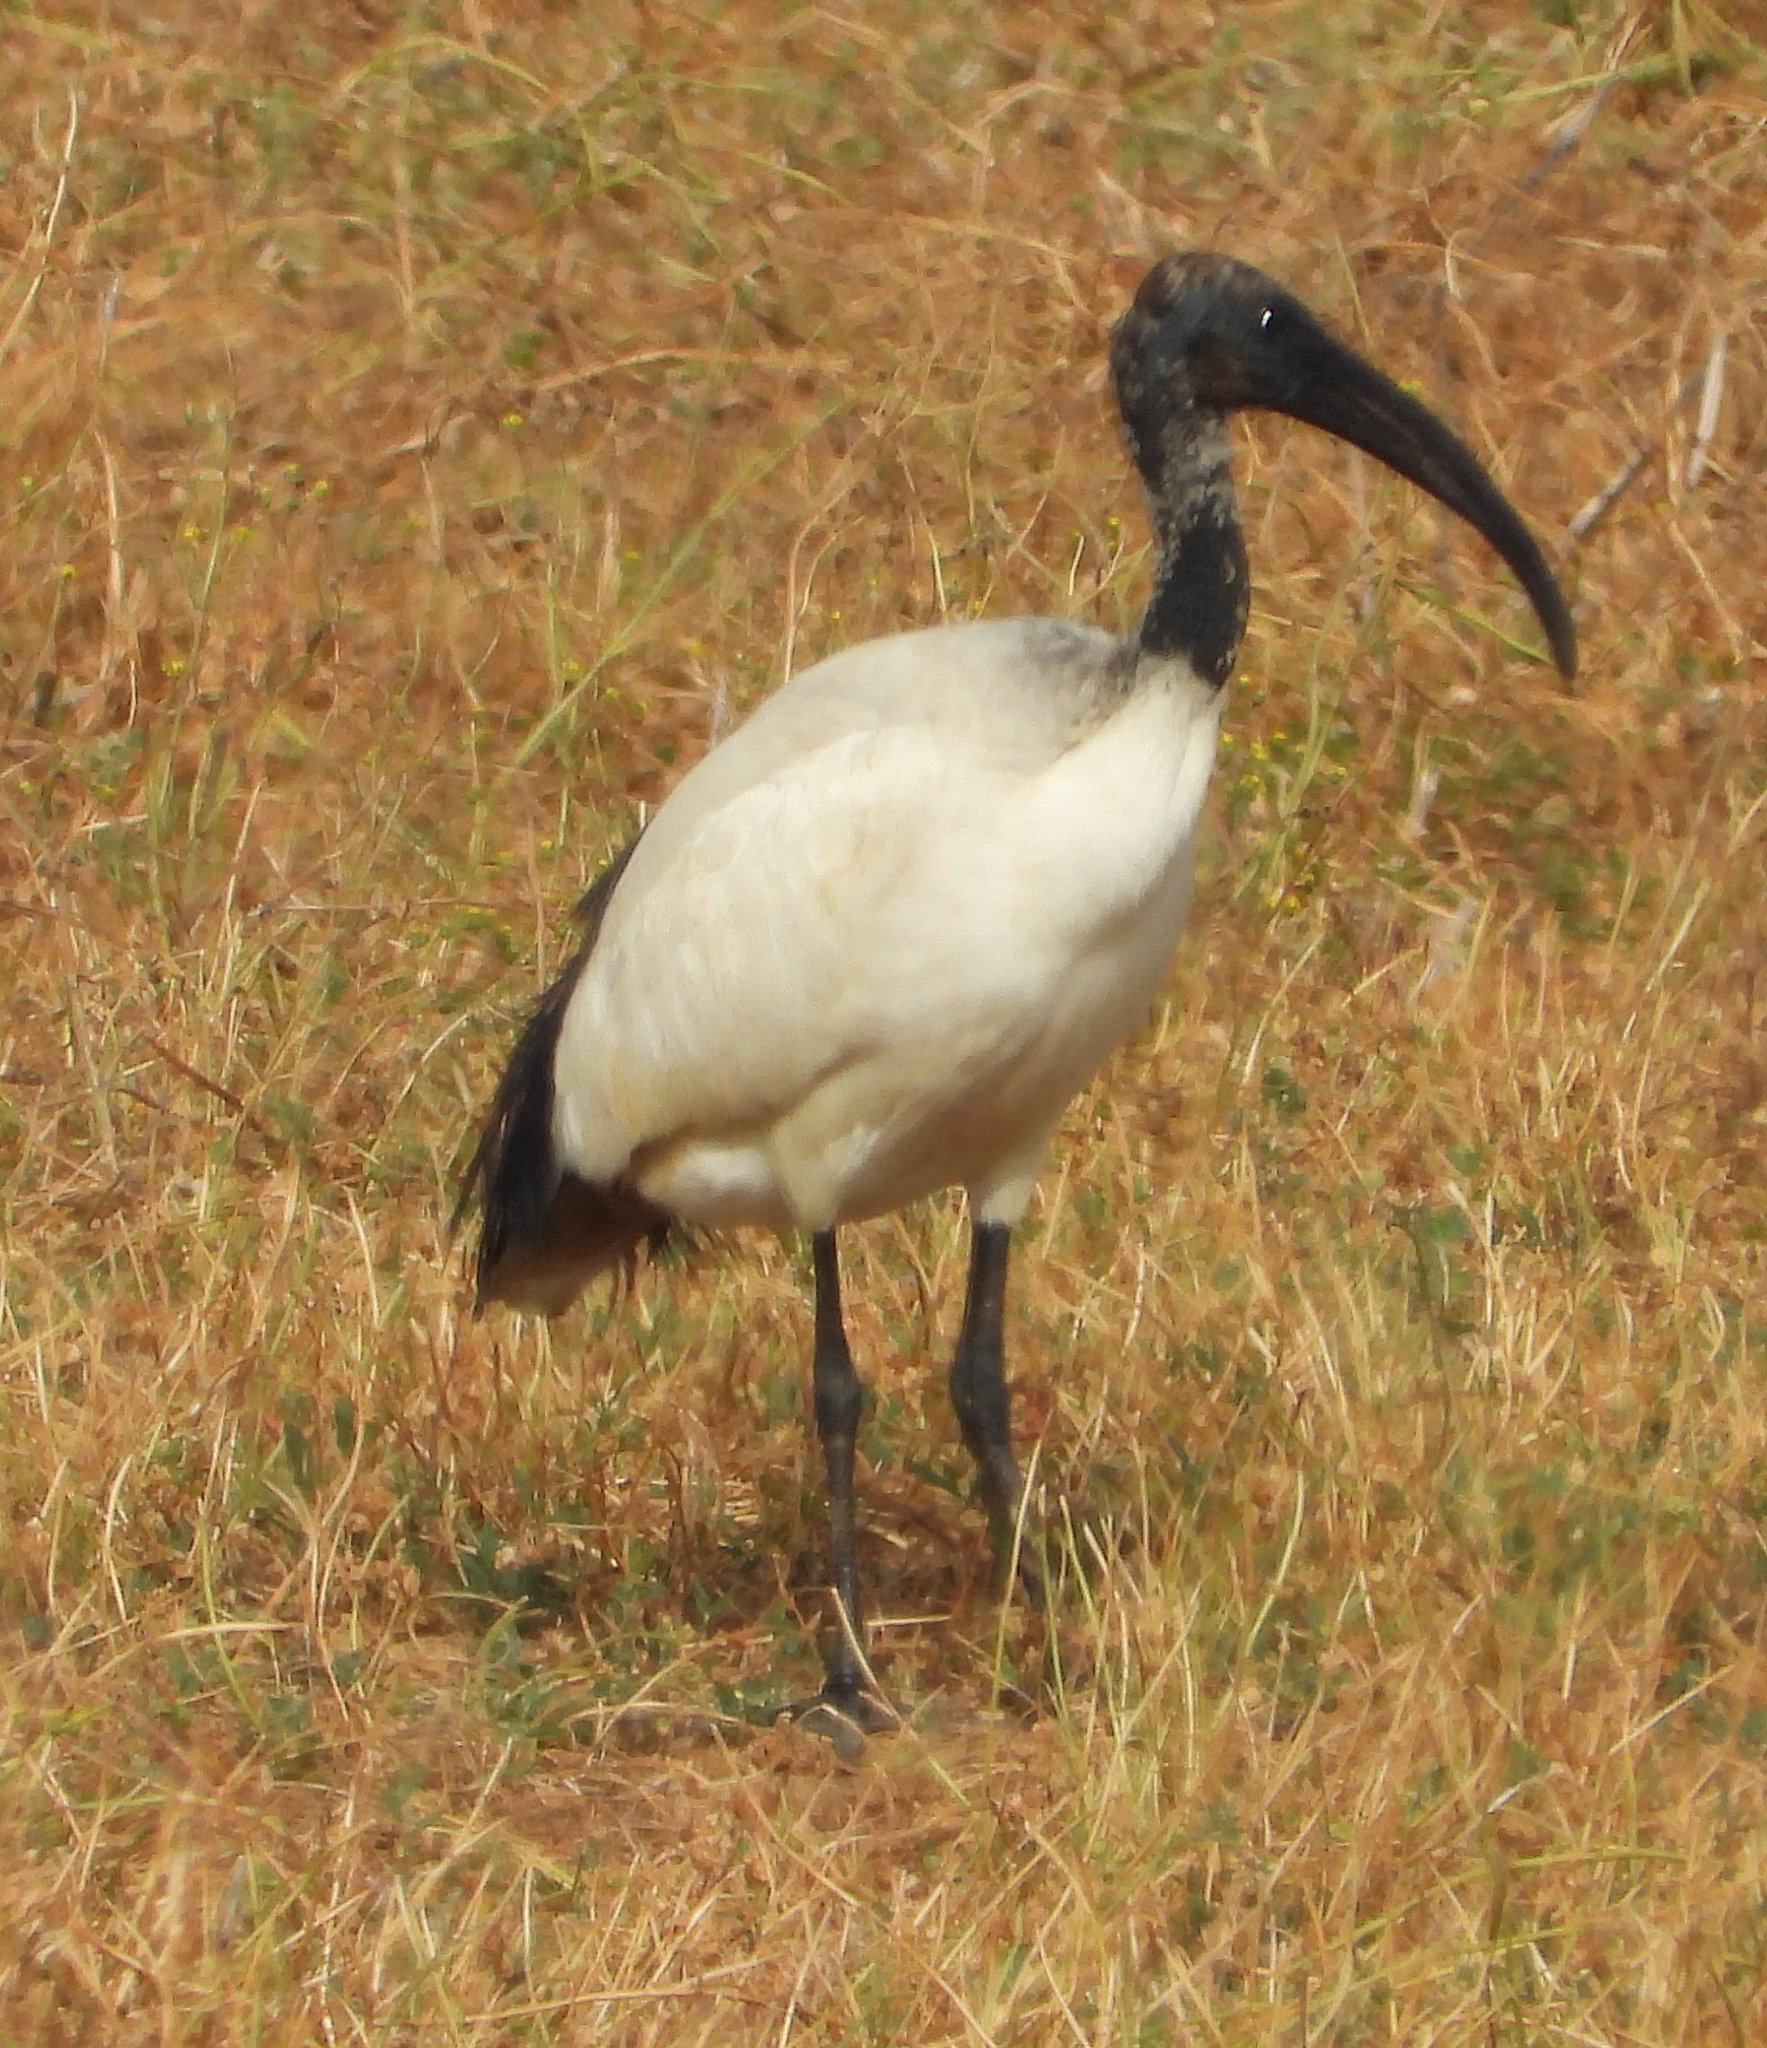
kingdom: Animalia
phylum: Chordata
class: Aves
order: Pelecaniformes
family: Threskiornithidae
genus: Threskiornis
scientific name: Threskiornis aethiopicus
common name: Sacred ibis
